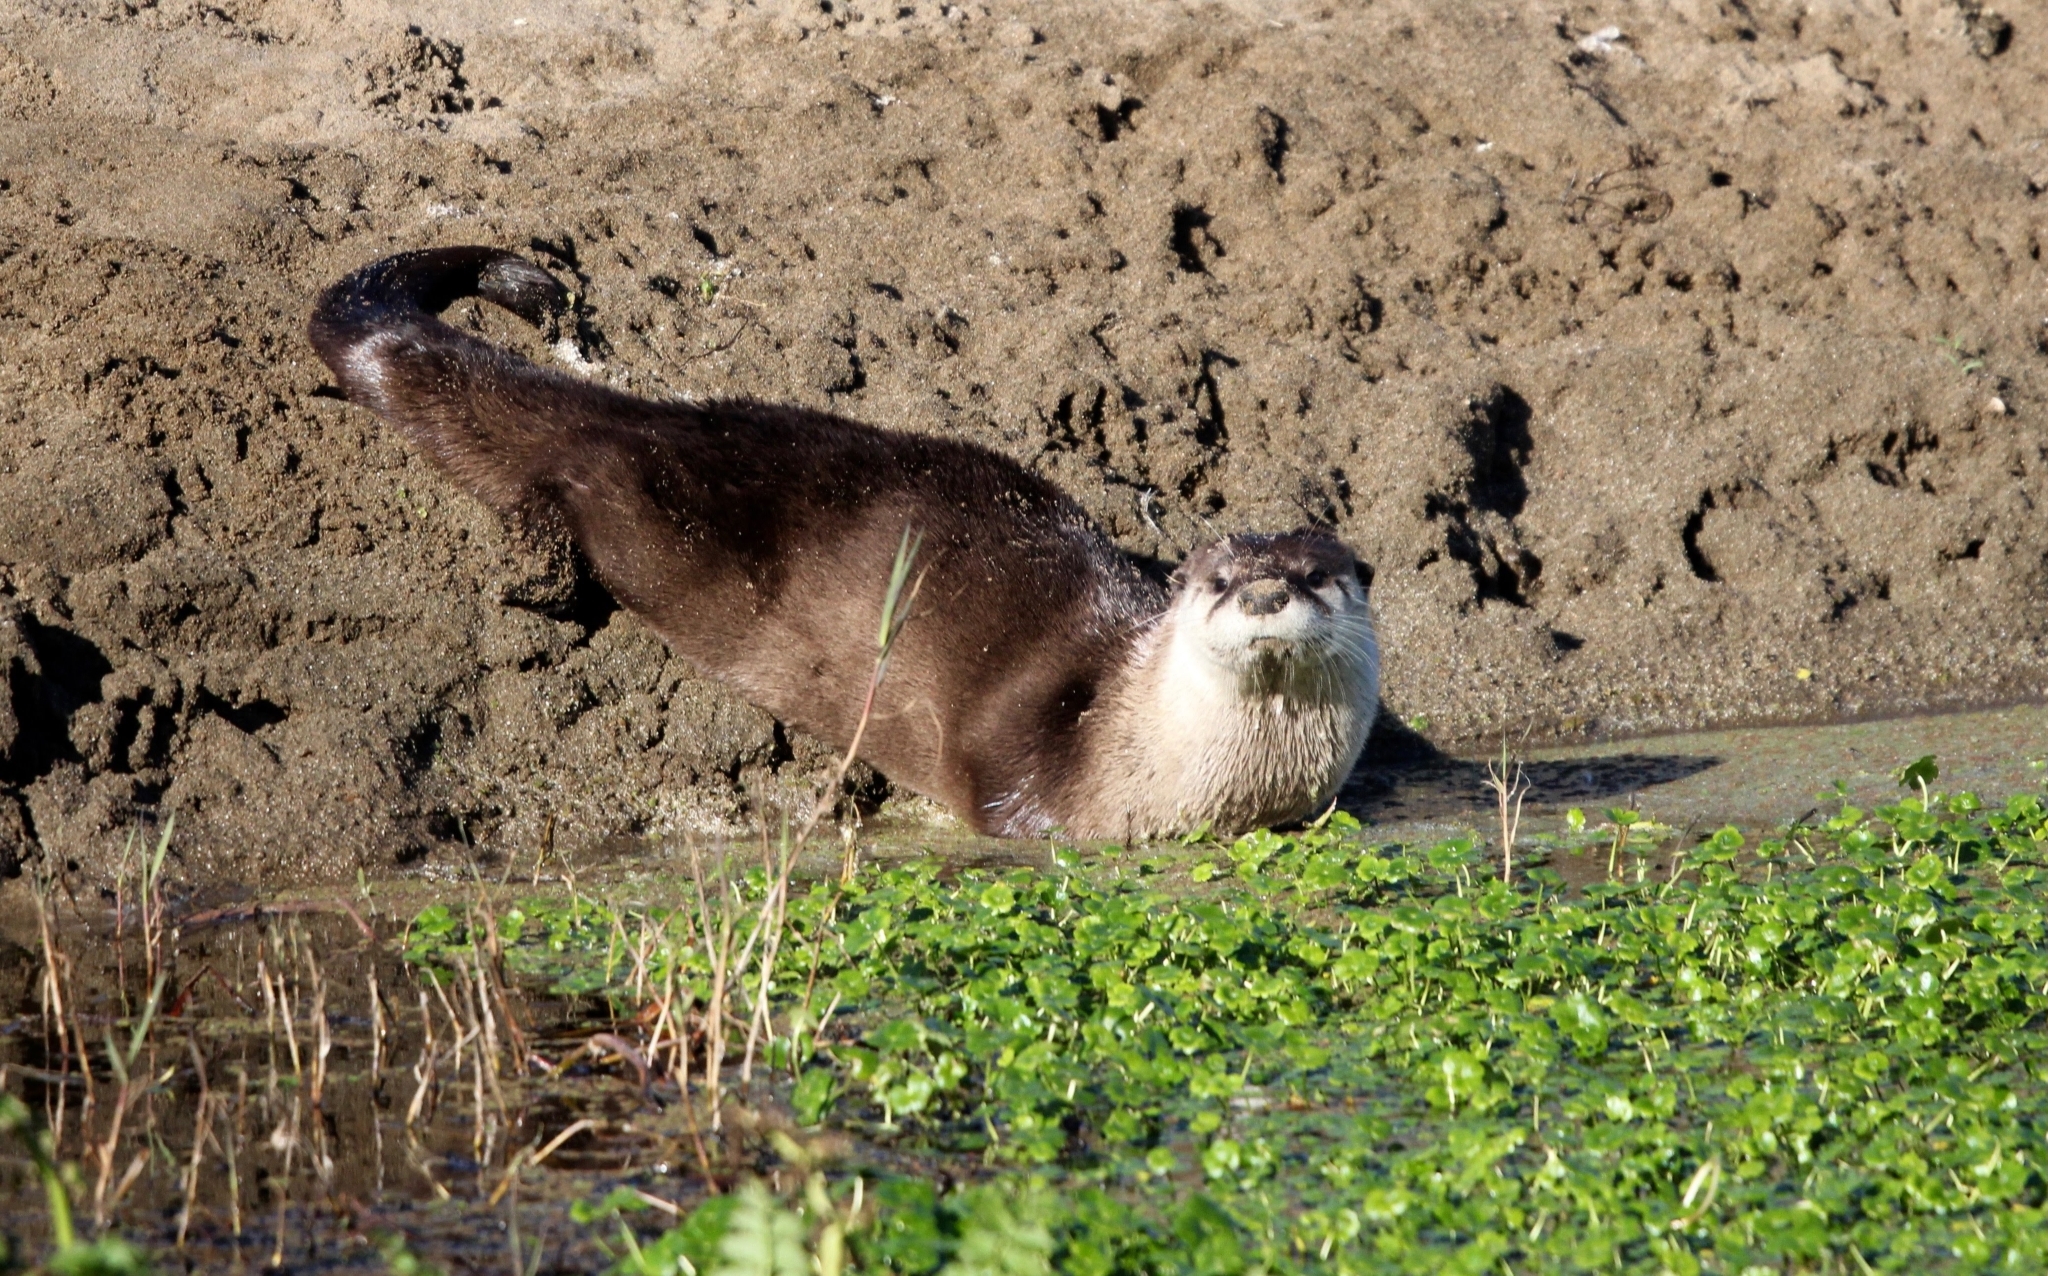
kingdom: Animalia
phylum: Chordata
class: Mammalia
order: Carnivora
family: Mustelidae
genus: Lontra
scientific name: Lontra canadensis
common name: North american river otter
